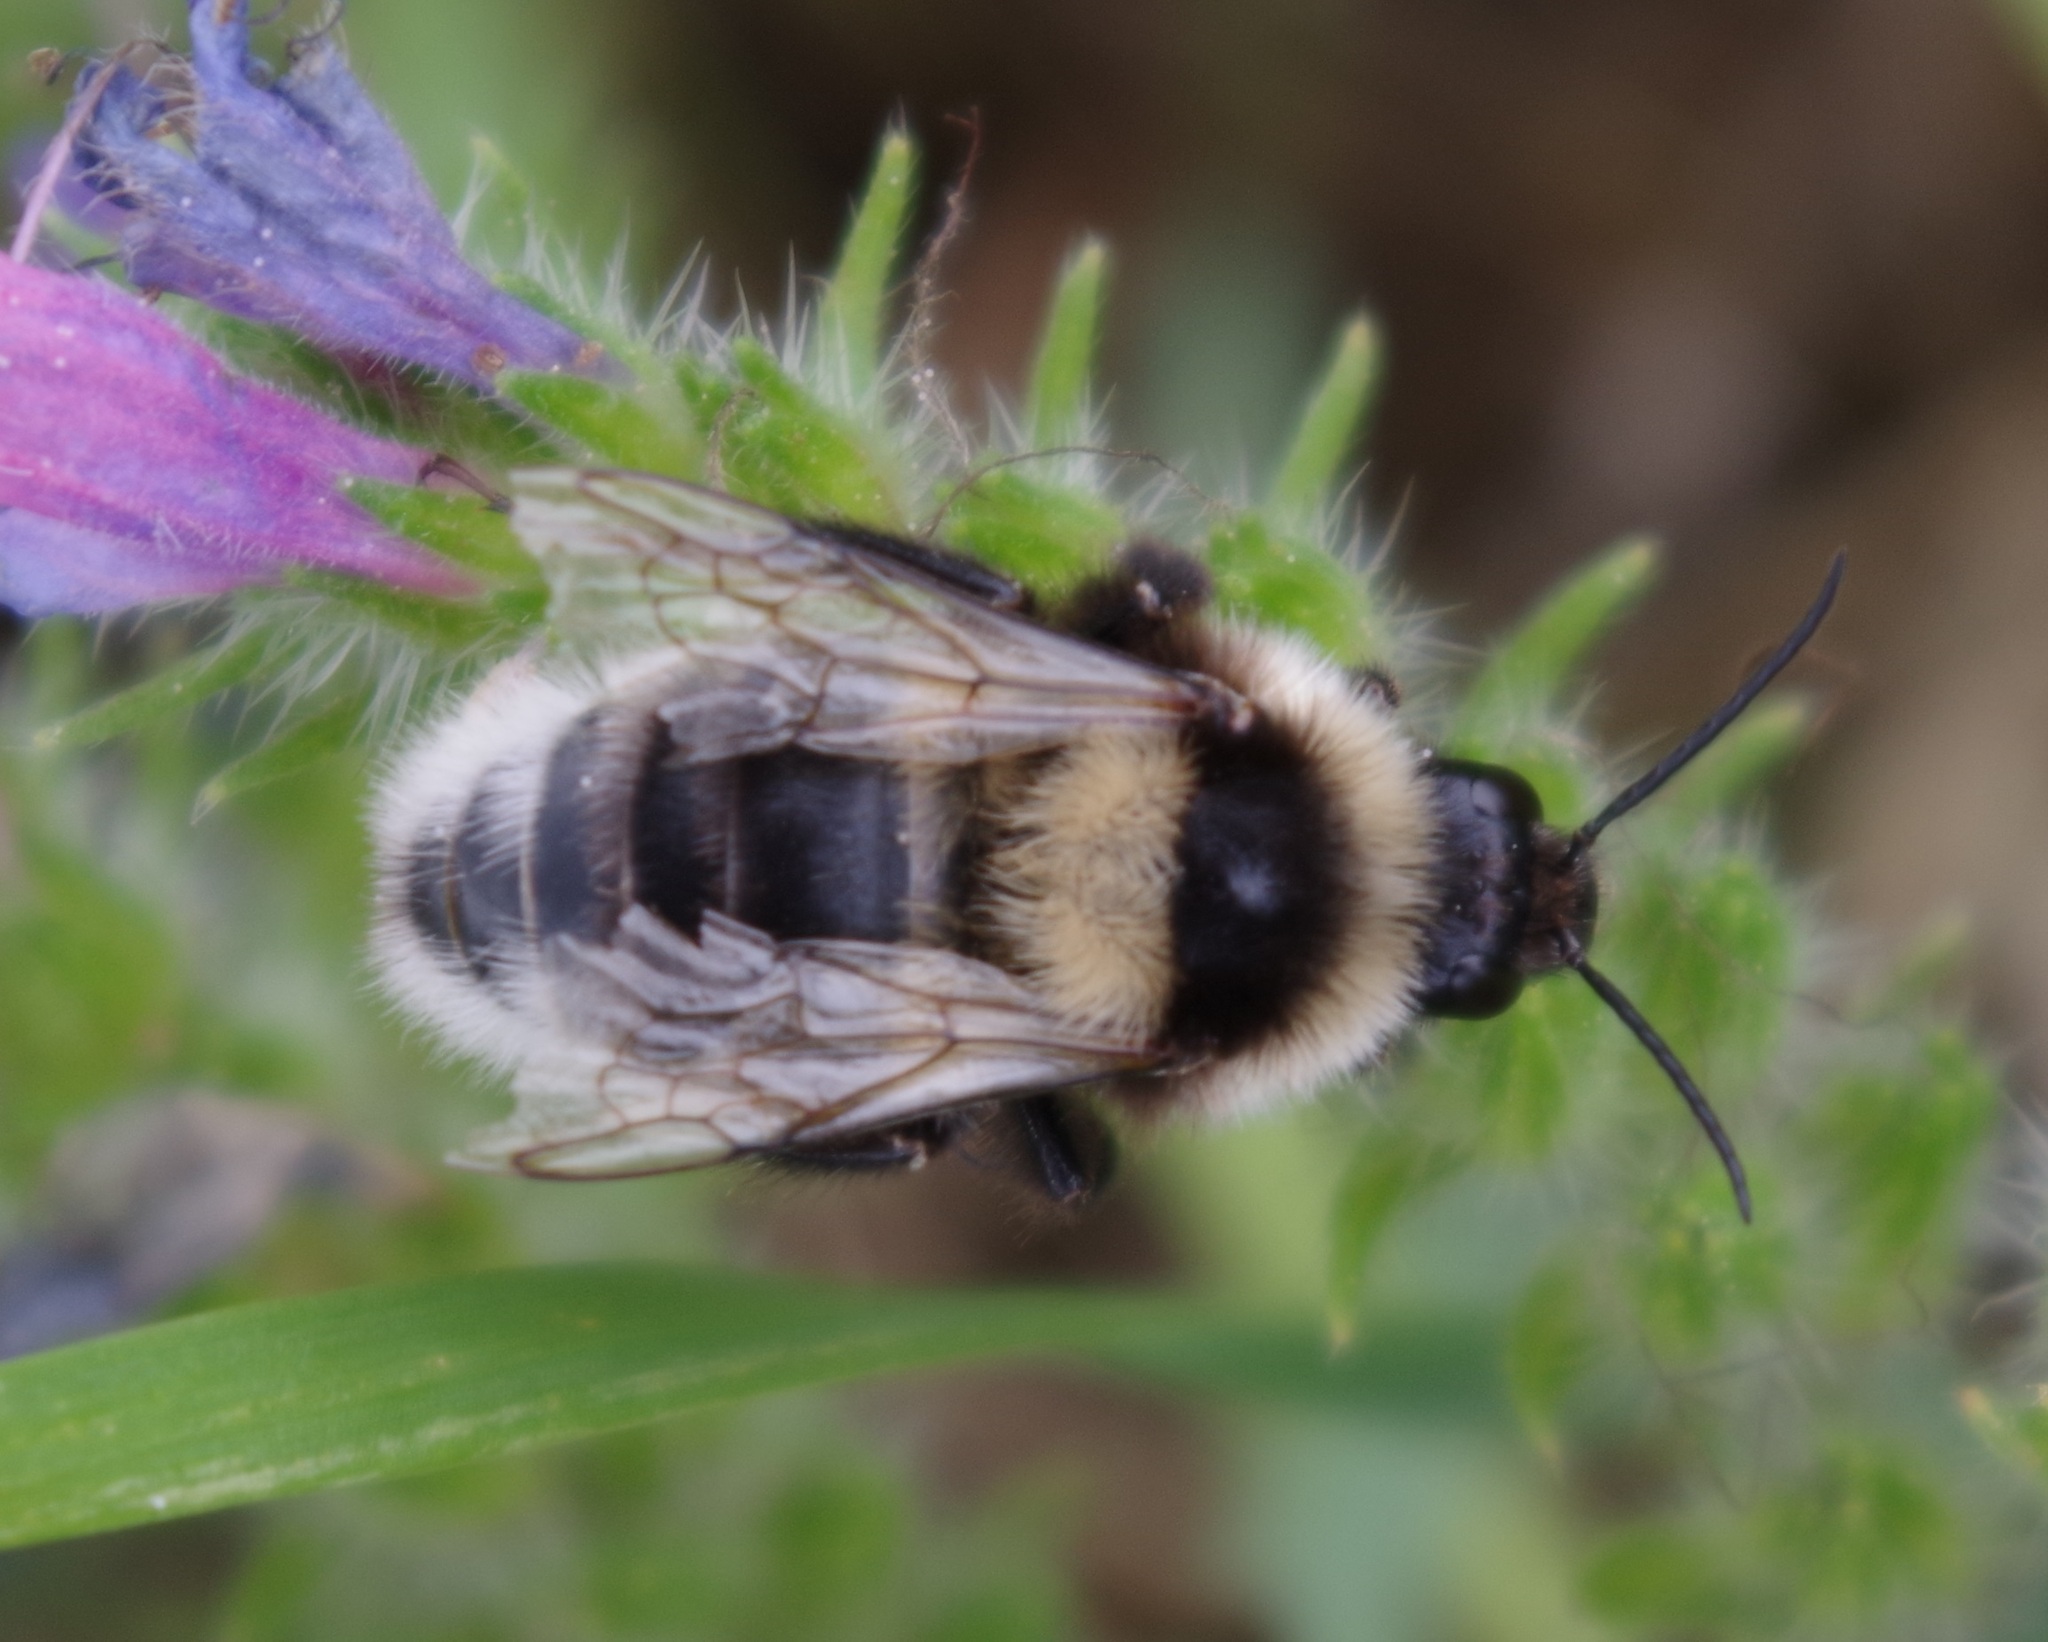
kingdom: Animalia
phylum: Arthropoda
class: Insecta
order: Hymenoptera
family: Apidae
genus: Bombus
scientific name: Bombus ruderatus
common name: Large garden bumblebee
